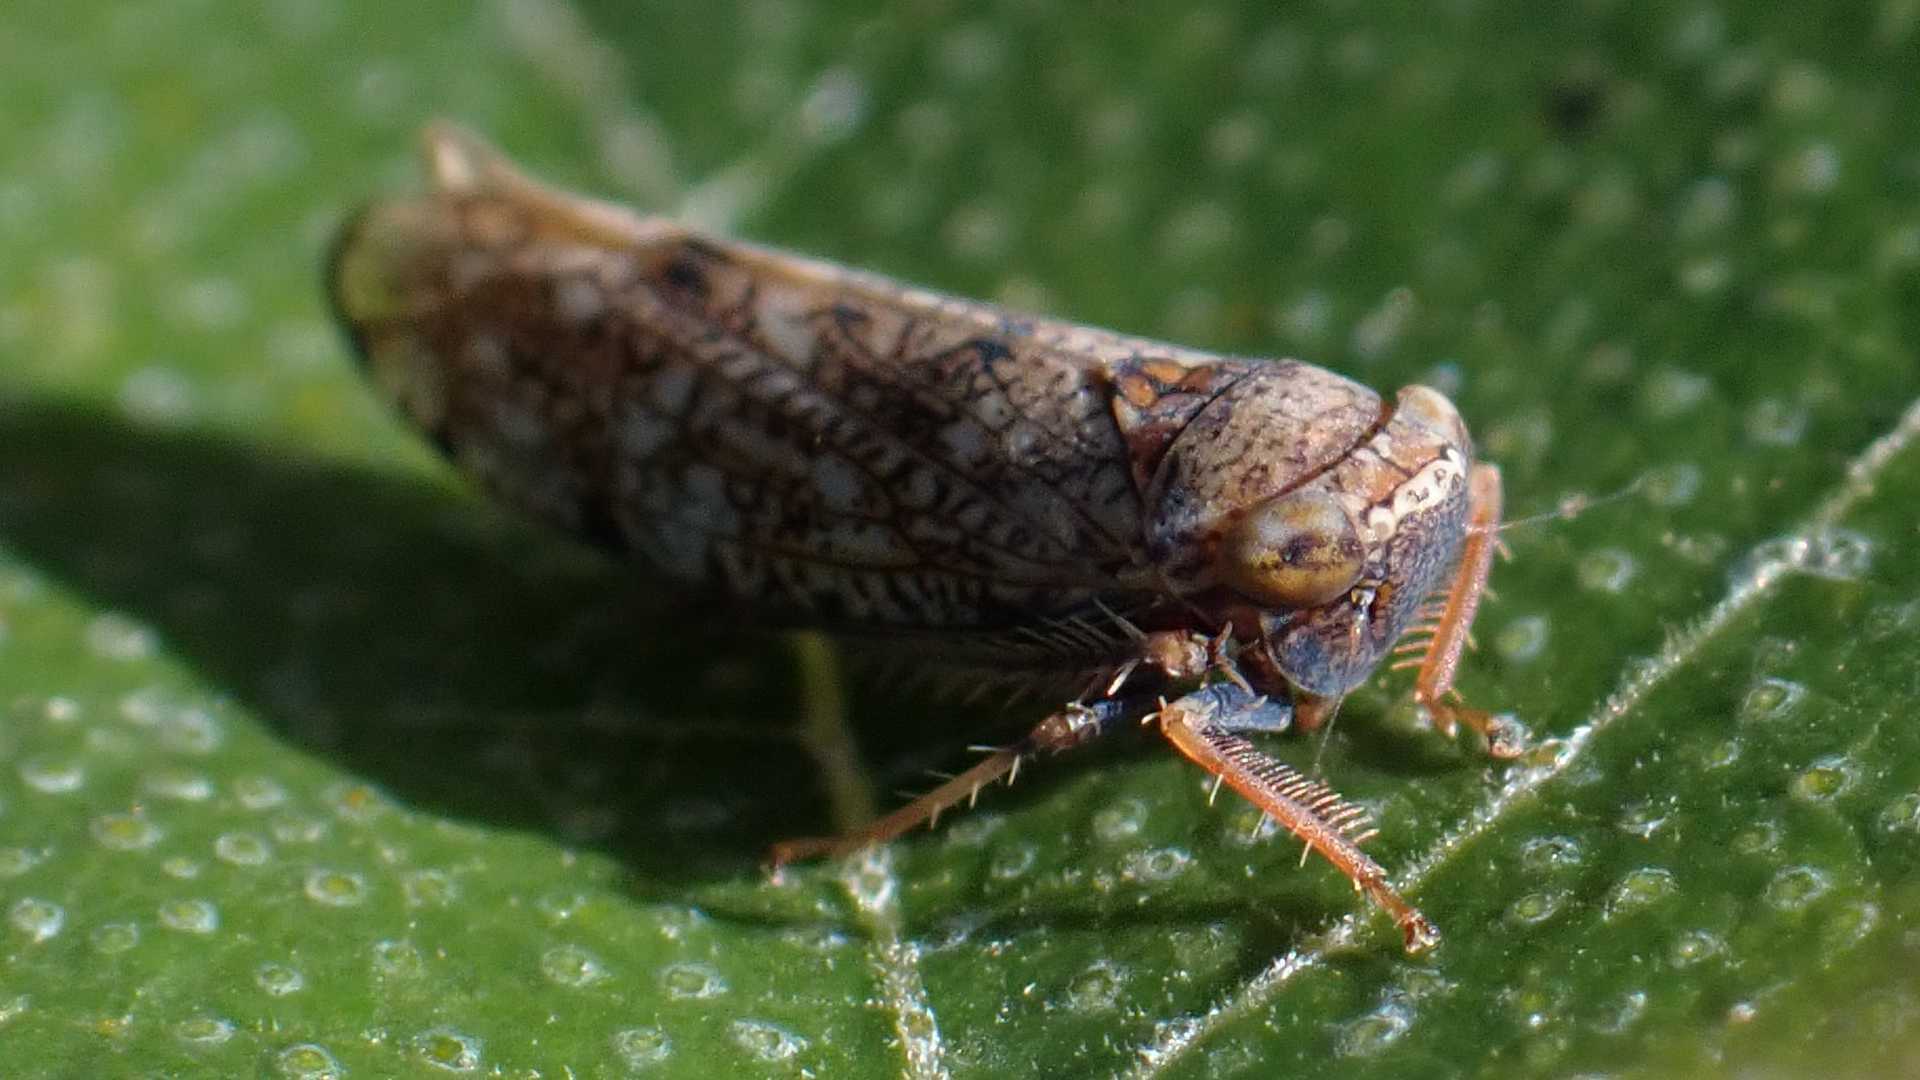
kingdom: Animalia
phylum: Arthropoda
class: Insecta
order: Hemiptera
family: Cicadellidae
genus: Orientus
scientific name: Orientus ishidae
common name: Japanese leafhopper
